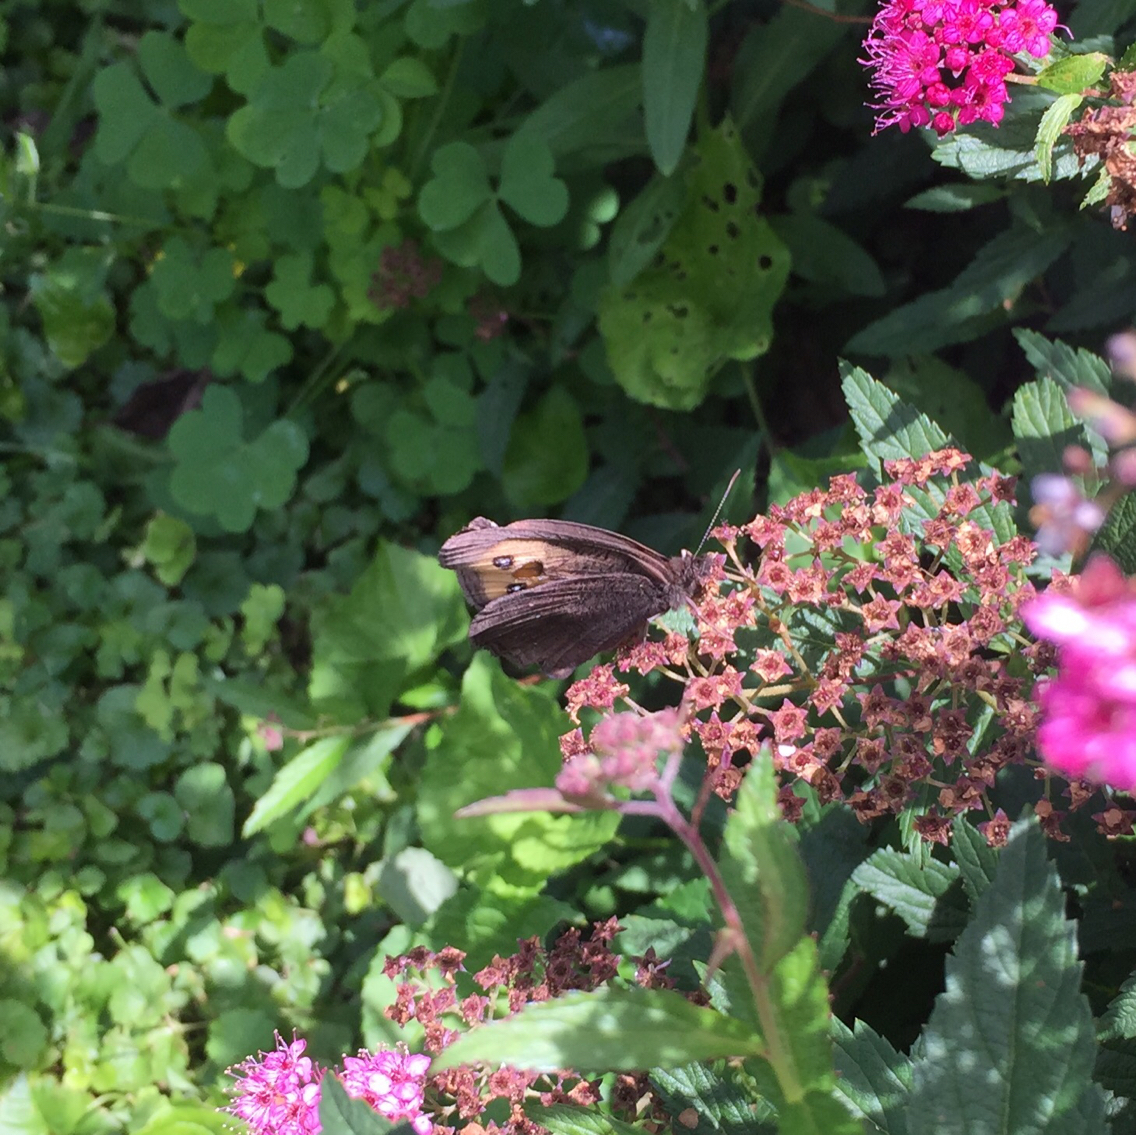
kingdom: Animalia
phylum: Arthropoda
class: Insecta
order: Lepidoptera
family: Nymphalidae
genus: Cercyonis
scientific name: Cercyonis pegala
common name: Common wood-nymph
